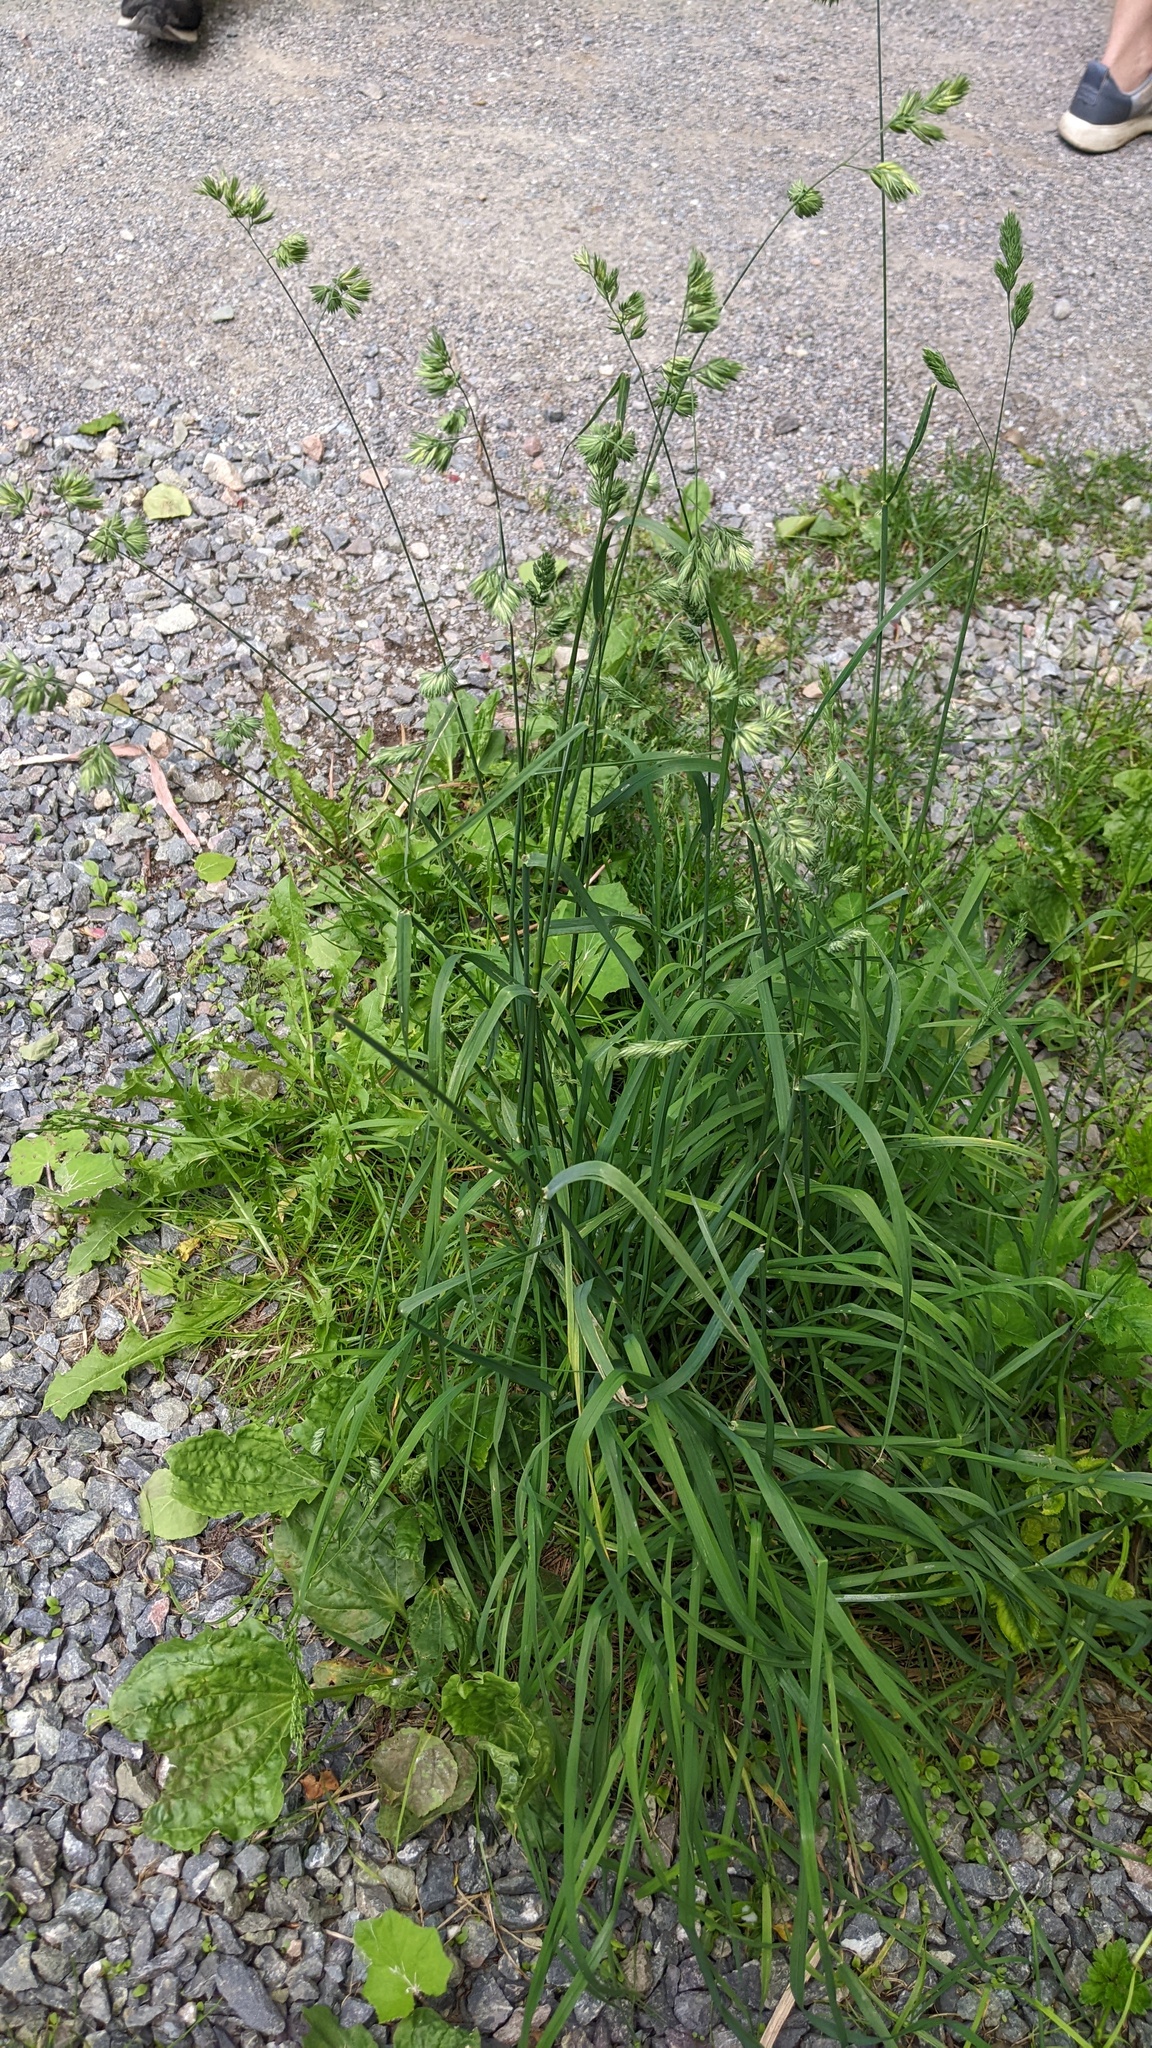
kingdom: Plantae
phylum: Tracheophyta
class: Liliopsida
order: Poales
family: Poaceae
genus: Dactylis
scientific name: Dactylis glomerata
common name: Orchardgrass
